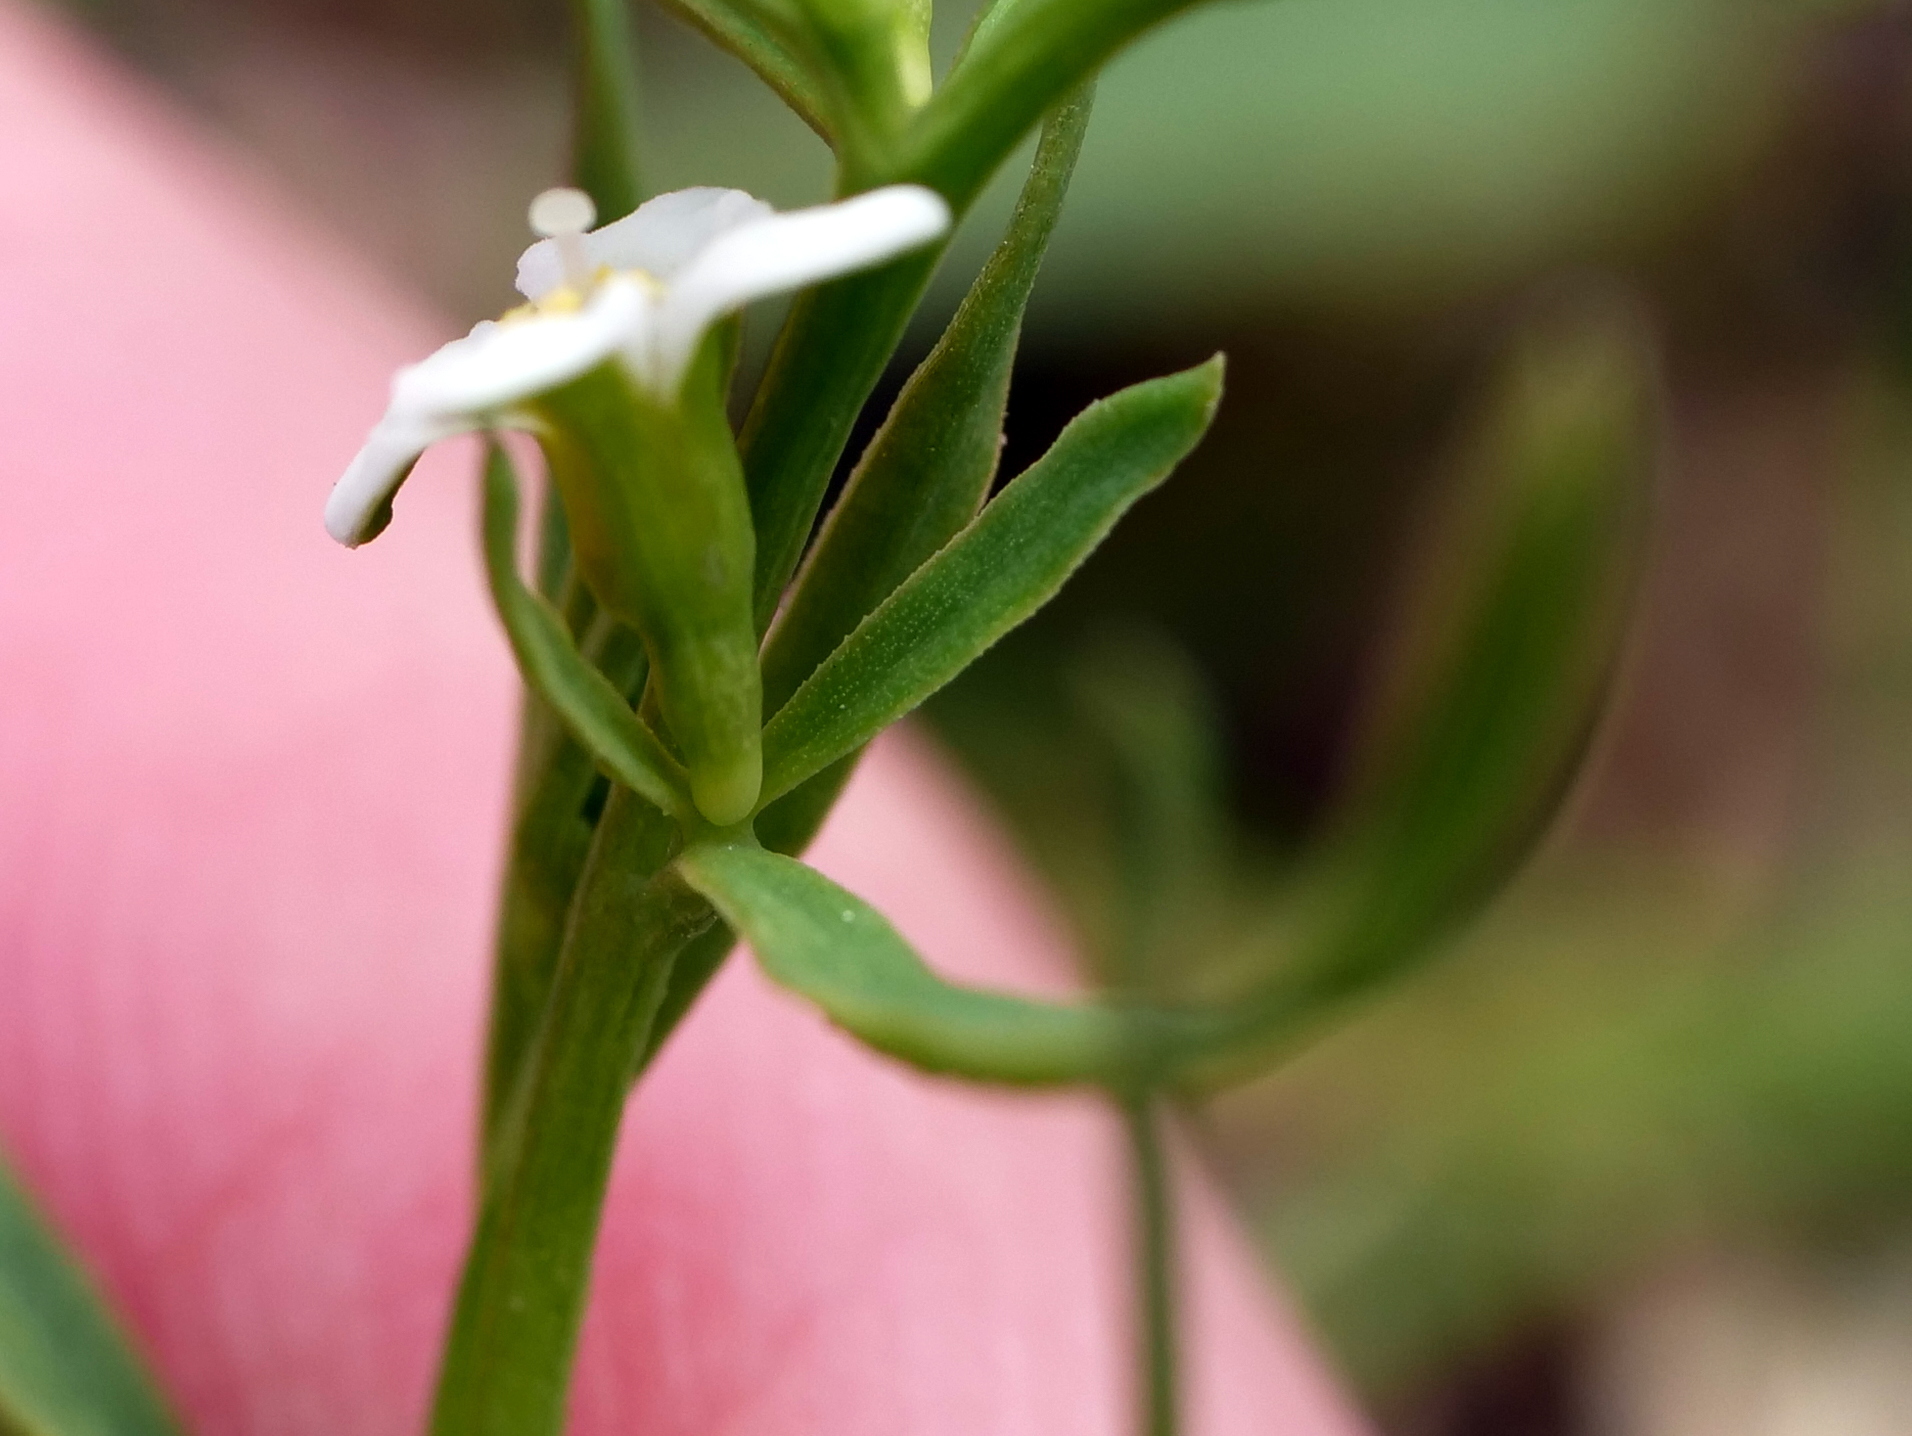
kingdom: Plantae
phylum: Tracheophyta
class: Magnoliopsida
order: Santalales
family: Thesiaceae
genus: Thesium
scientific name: Thesium alpinum
